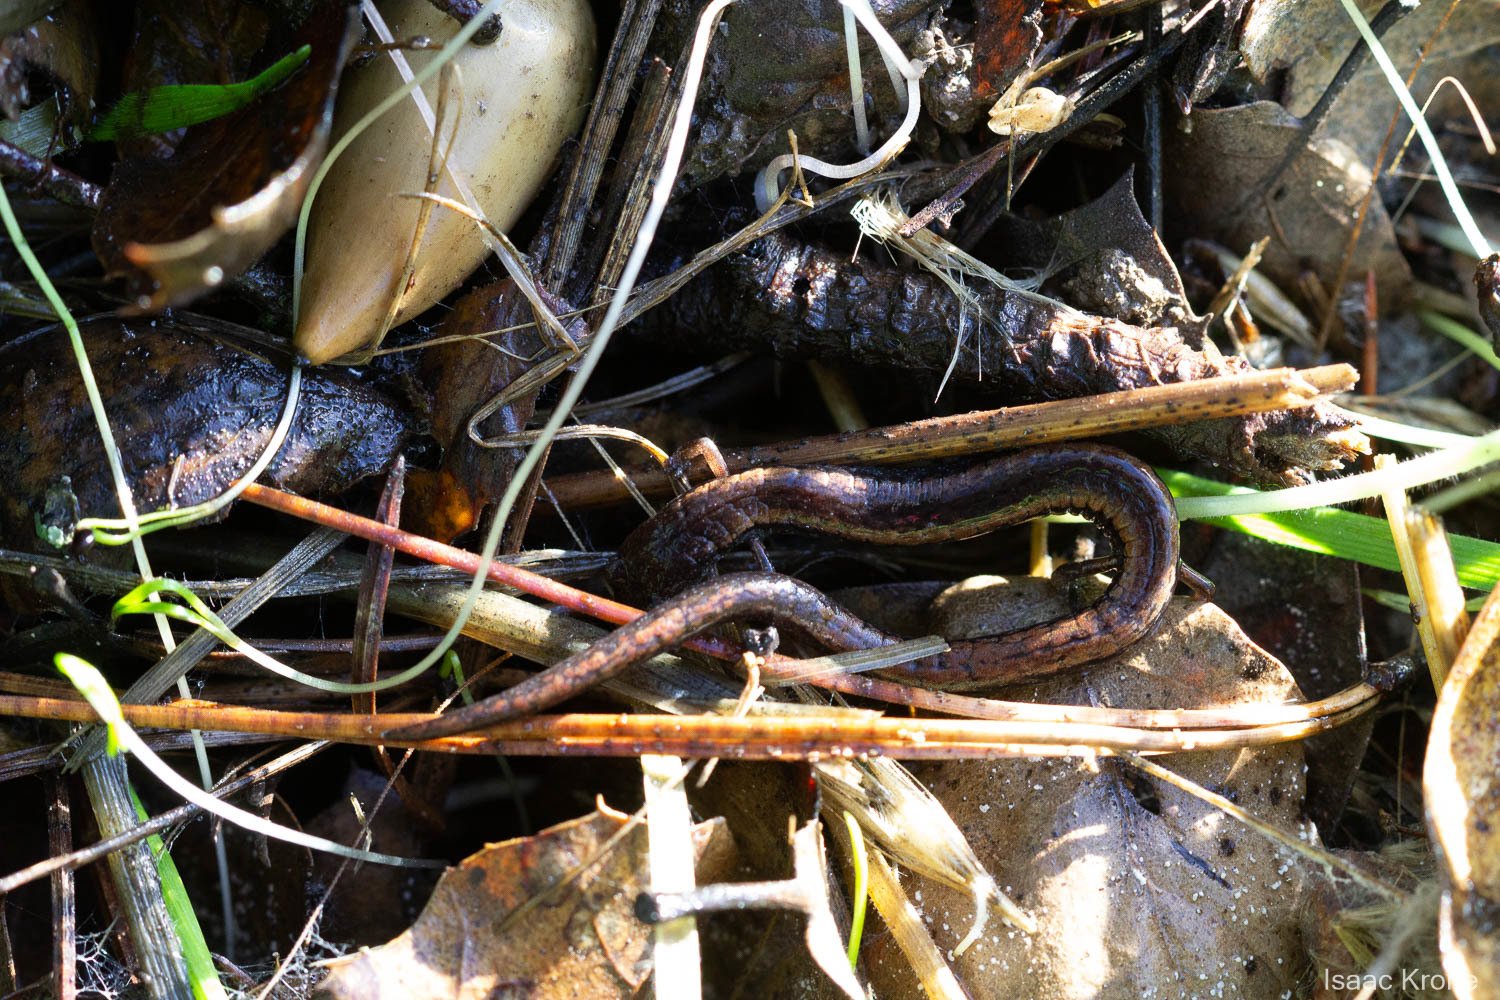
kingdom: Animalia
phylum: Chordata
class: Amphibia
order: Caudata
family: Plethodontidae
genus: Batrachoseps
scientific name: Batrachoseps attenuatus
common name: California slender salamander
